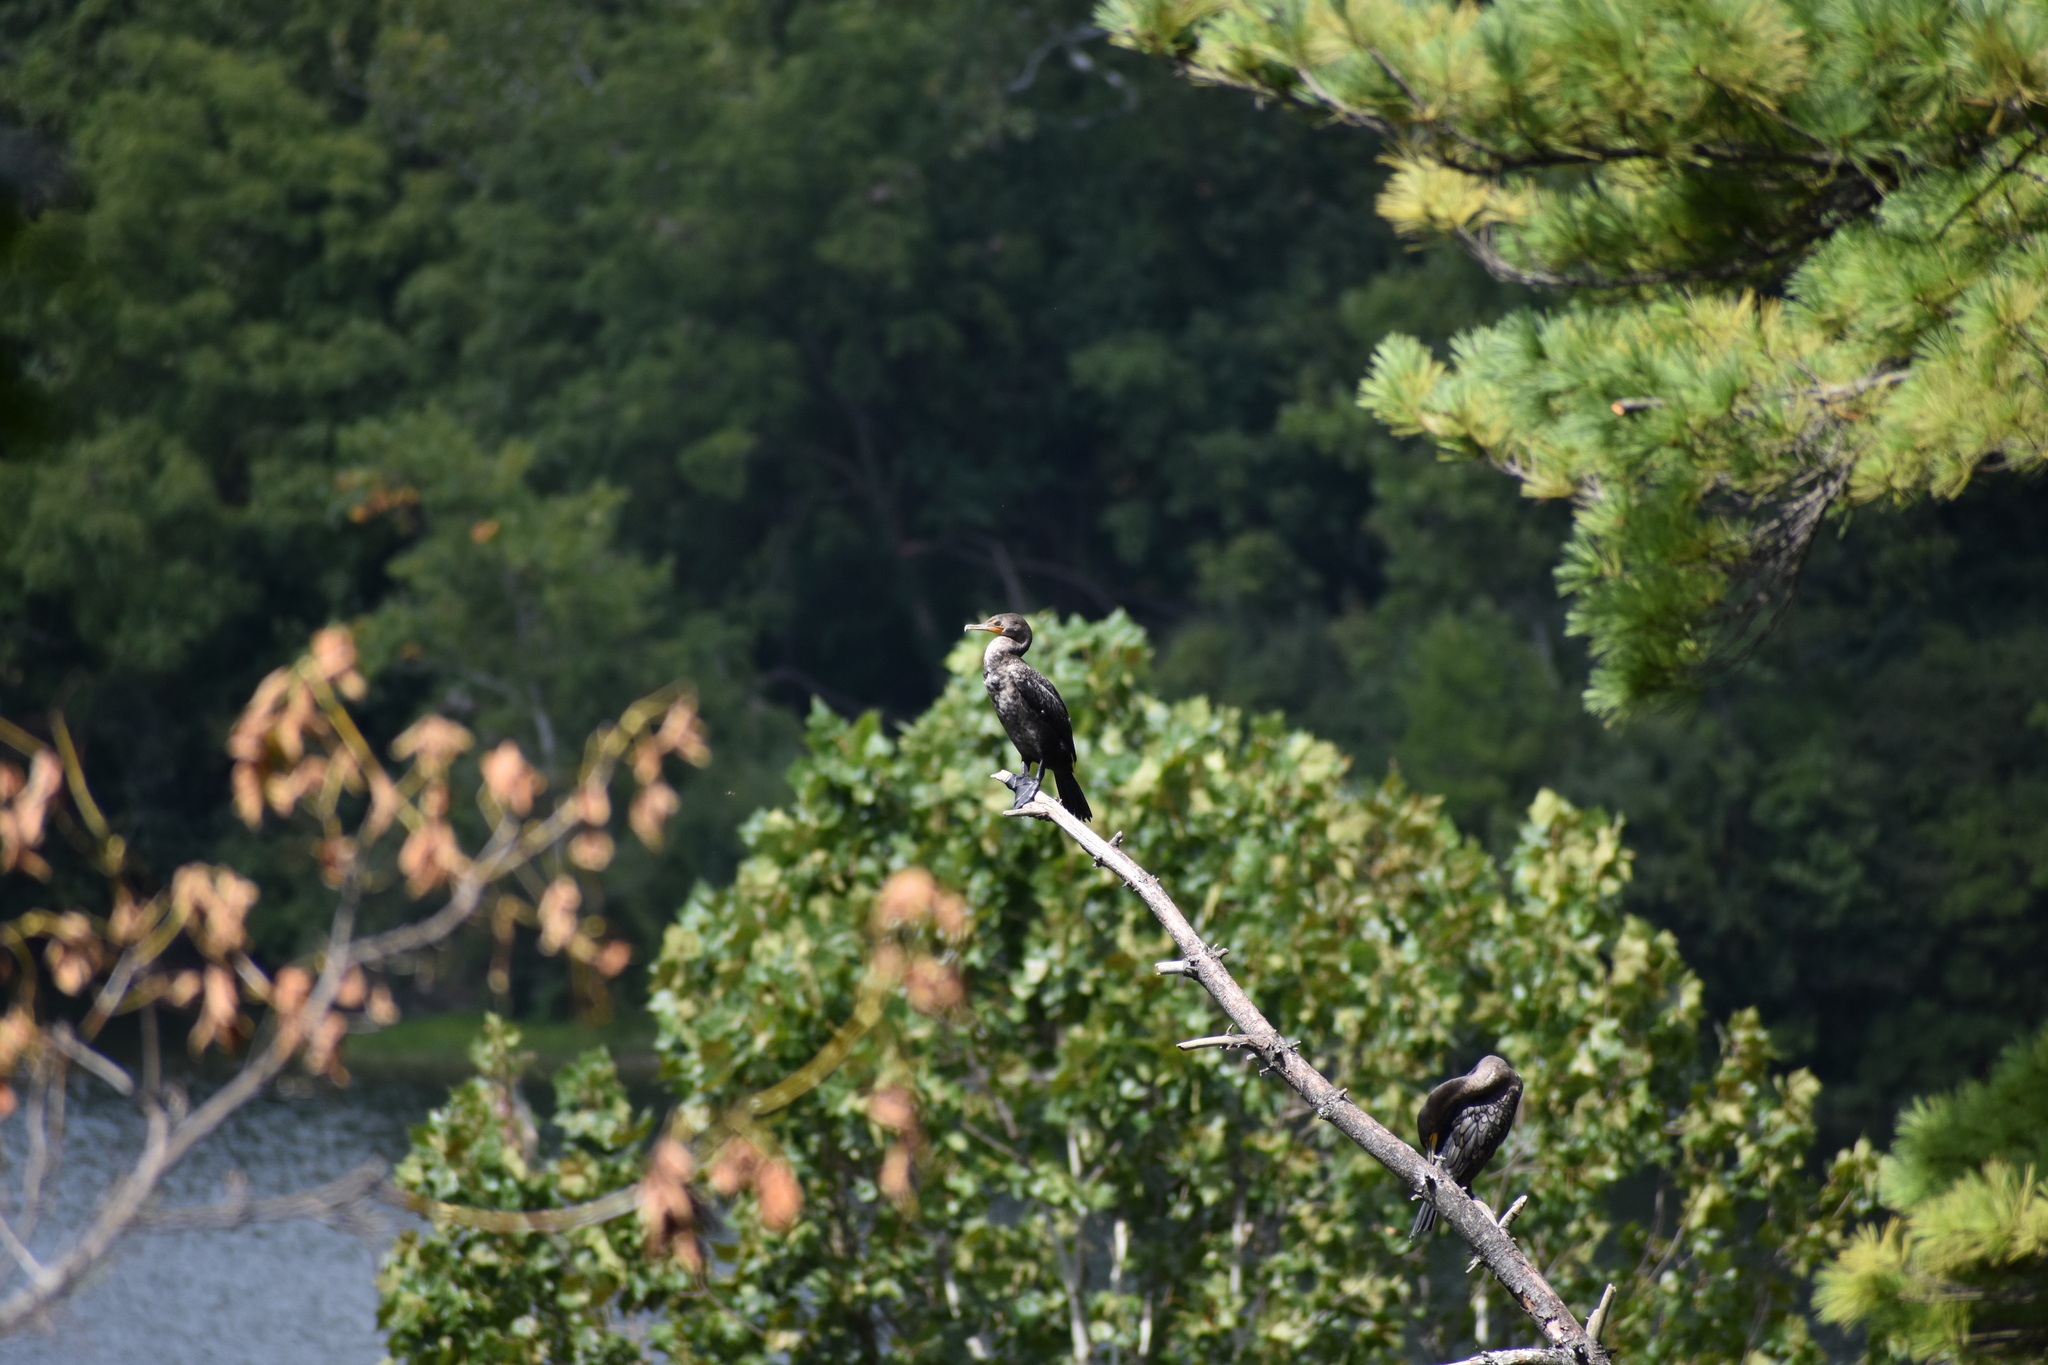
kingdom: Animalia
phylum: Chordata
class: Aves
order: Suliformes
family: Phalacrocoracidae
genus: Phalacrocorax
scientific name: Phalacrocorax auritus
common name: Double-crested cormorant
